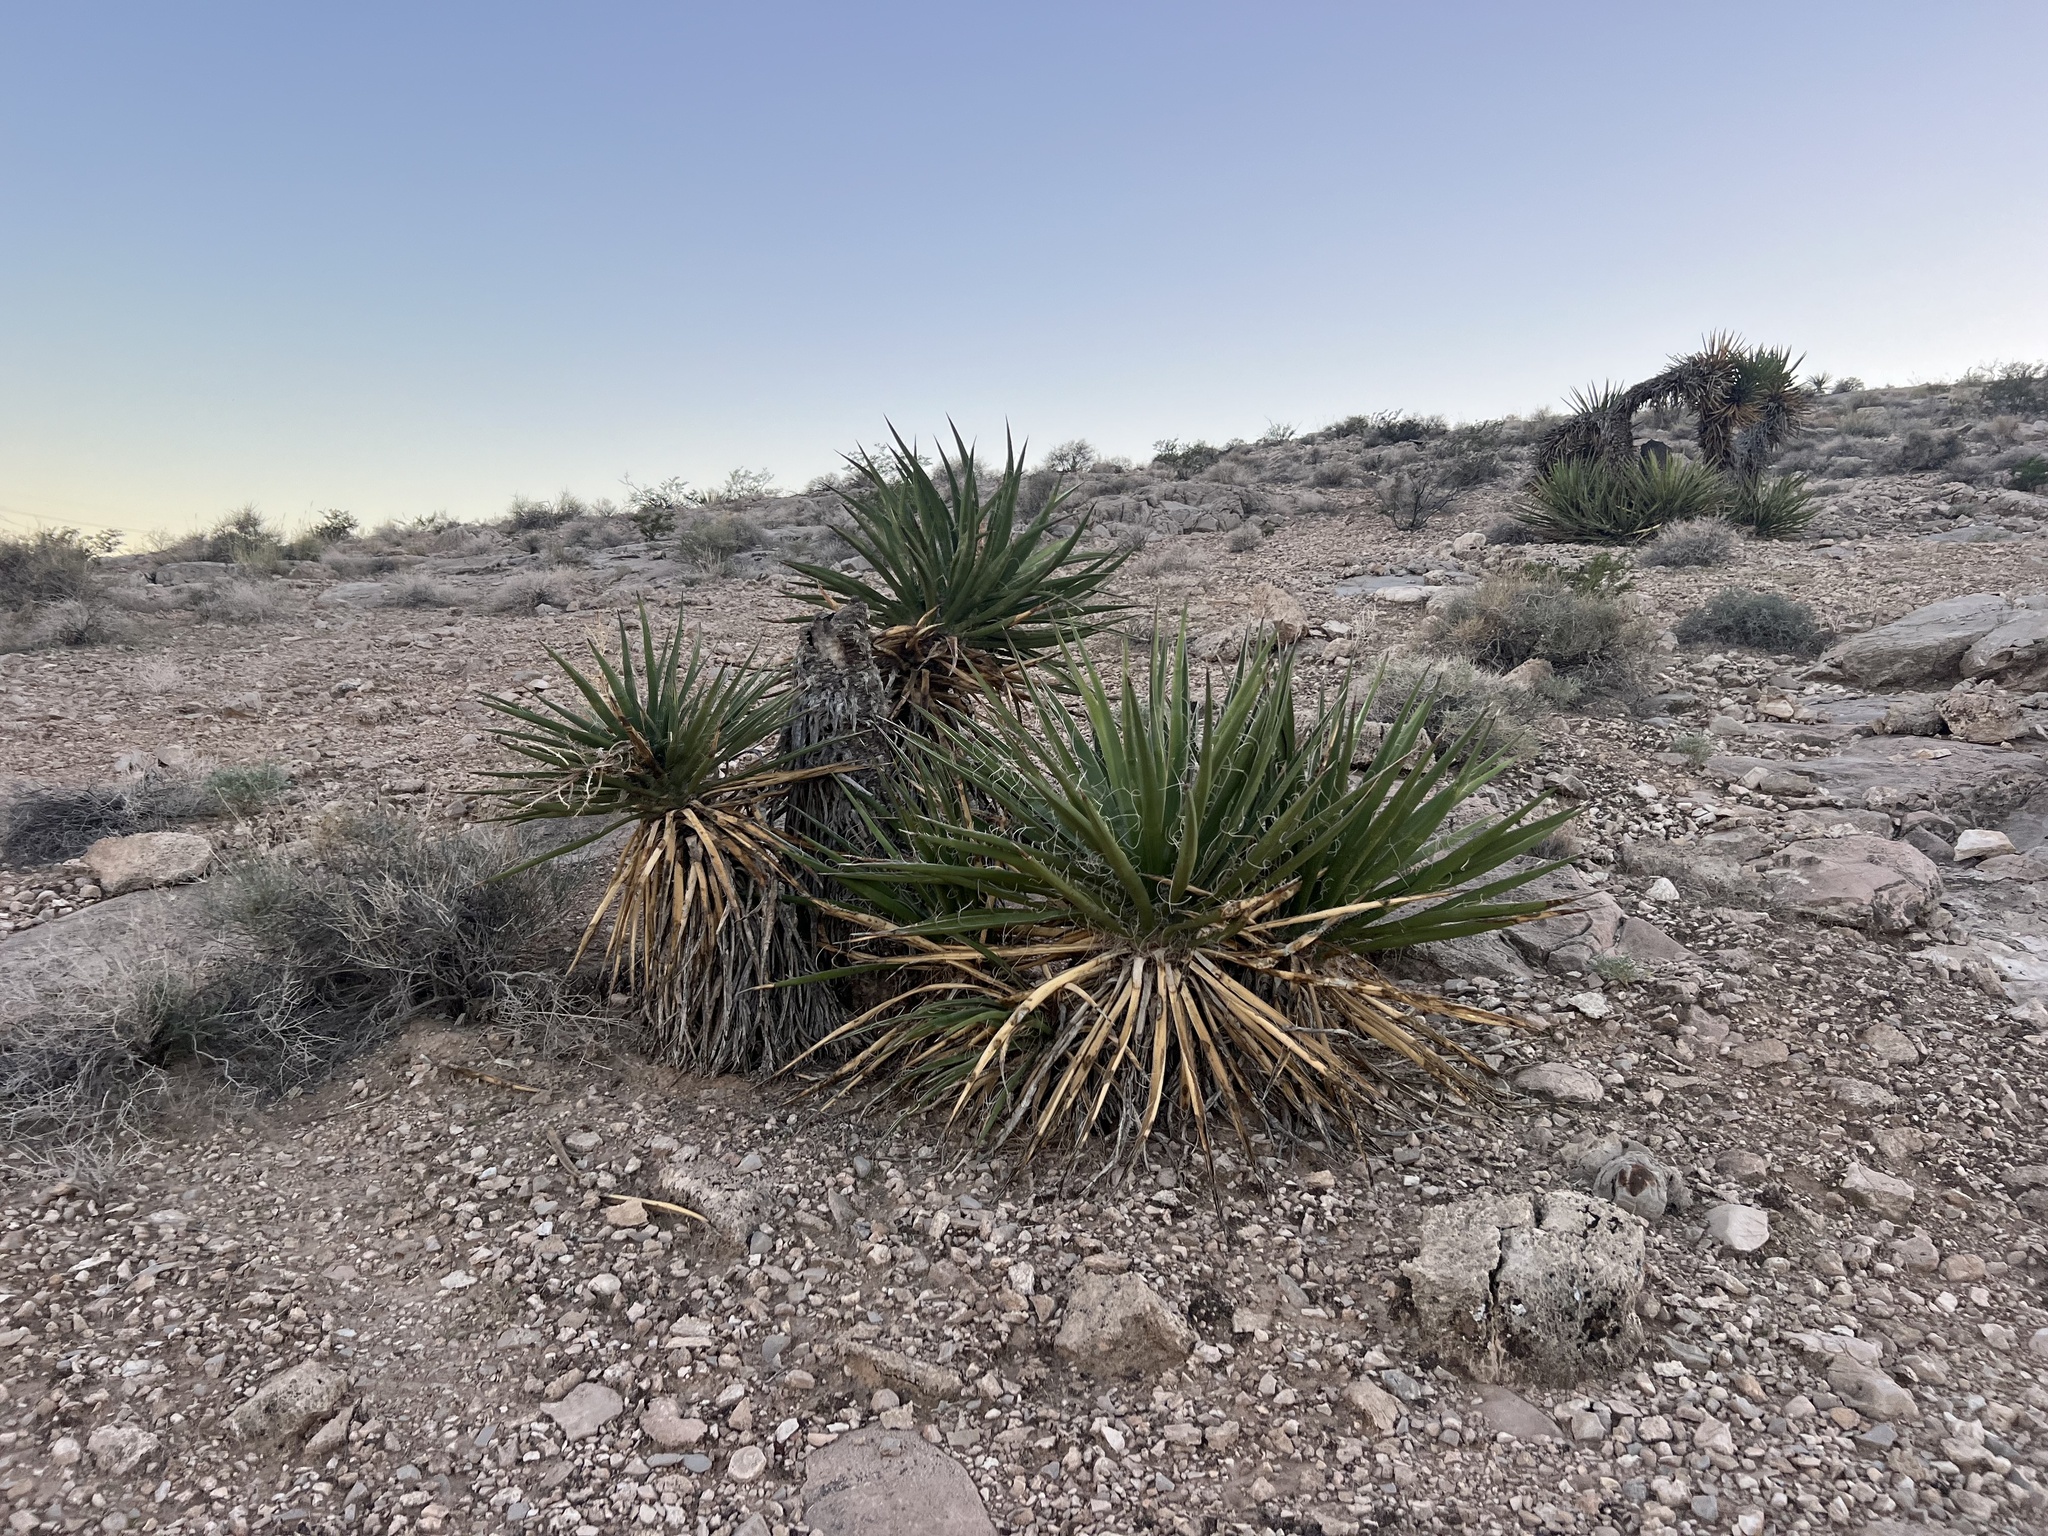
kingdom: Plantae
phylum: Tracheophyta
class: Liliopsida
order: Asparagales
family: Asparagaceae
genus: Yucca
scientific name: Yucca schidigera
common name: Mojave yucca
